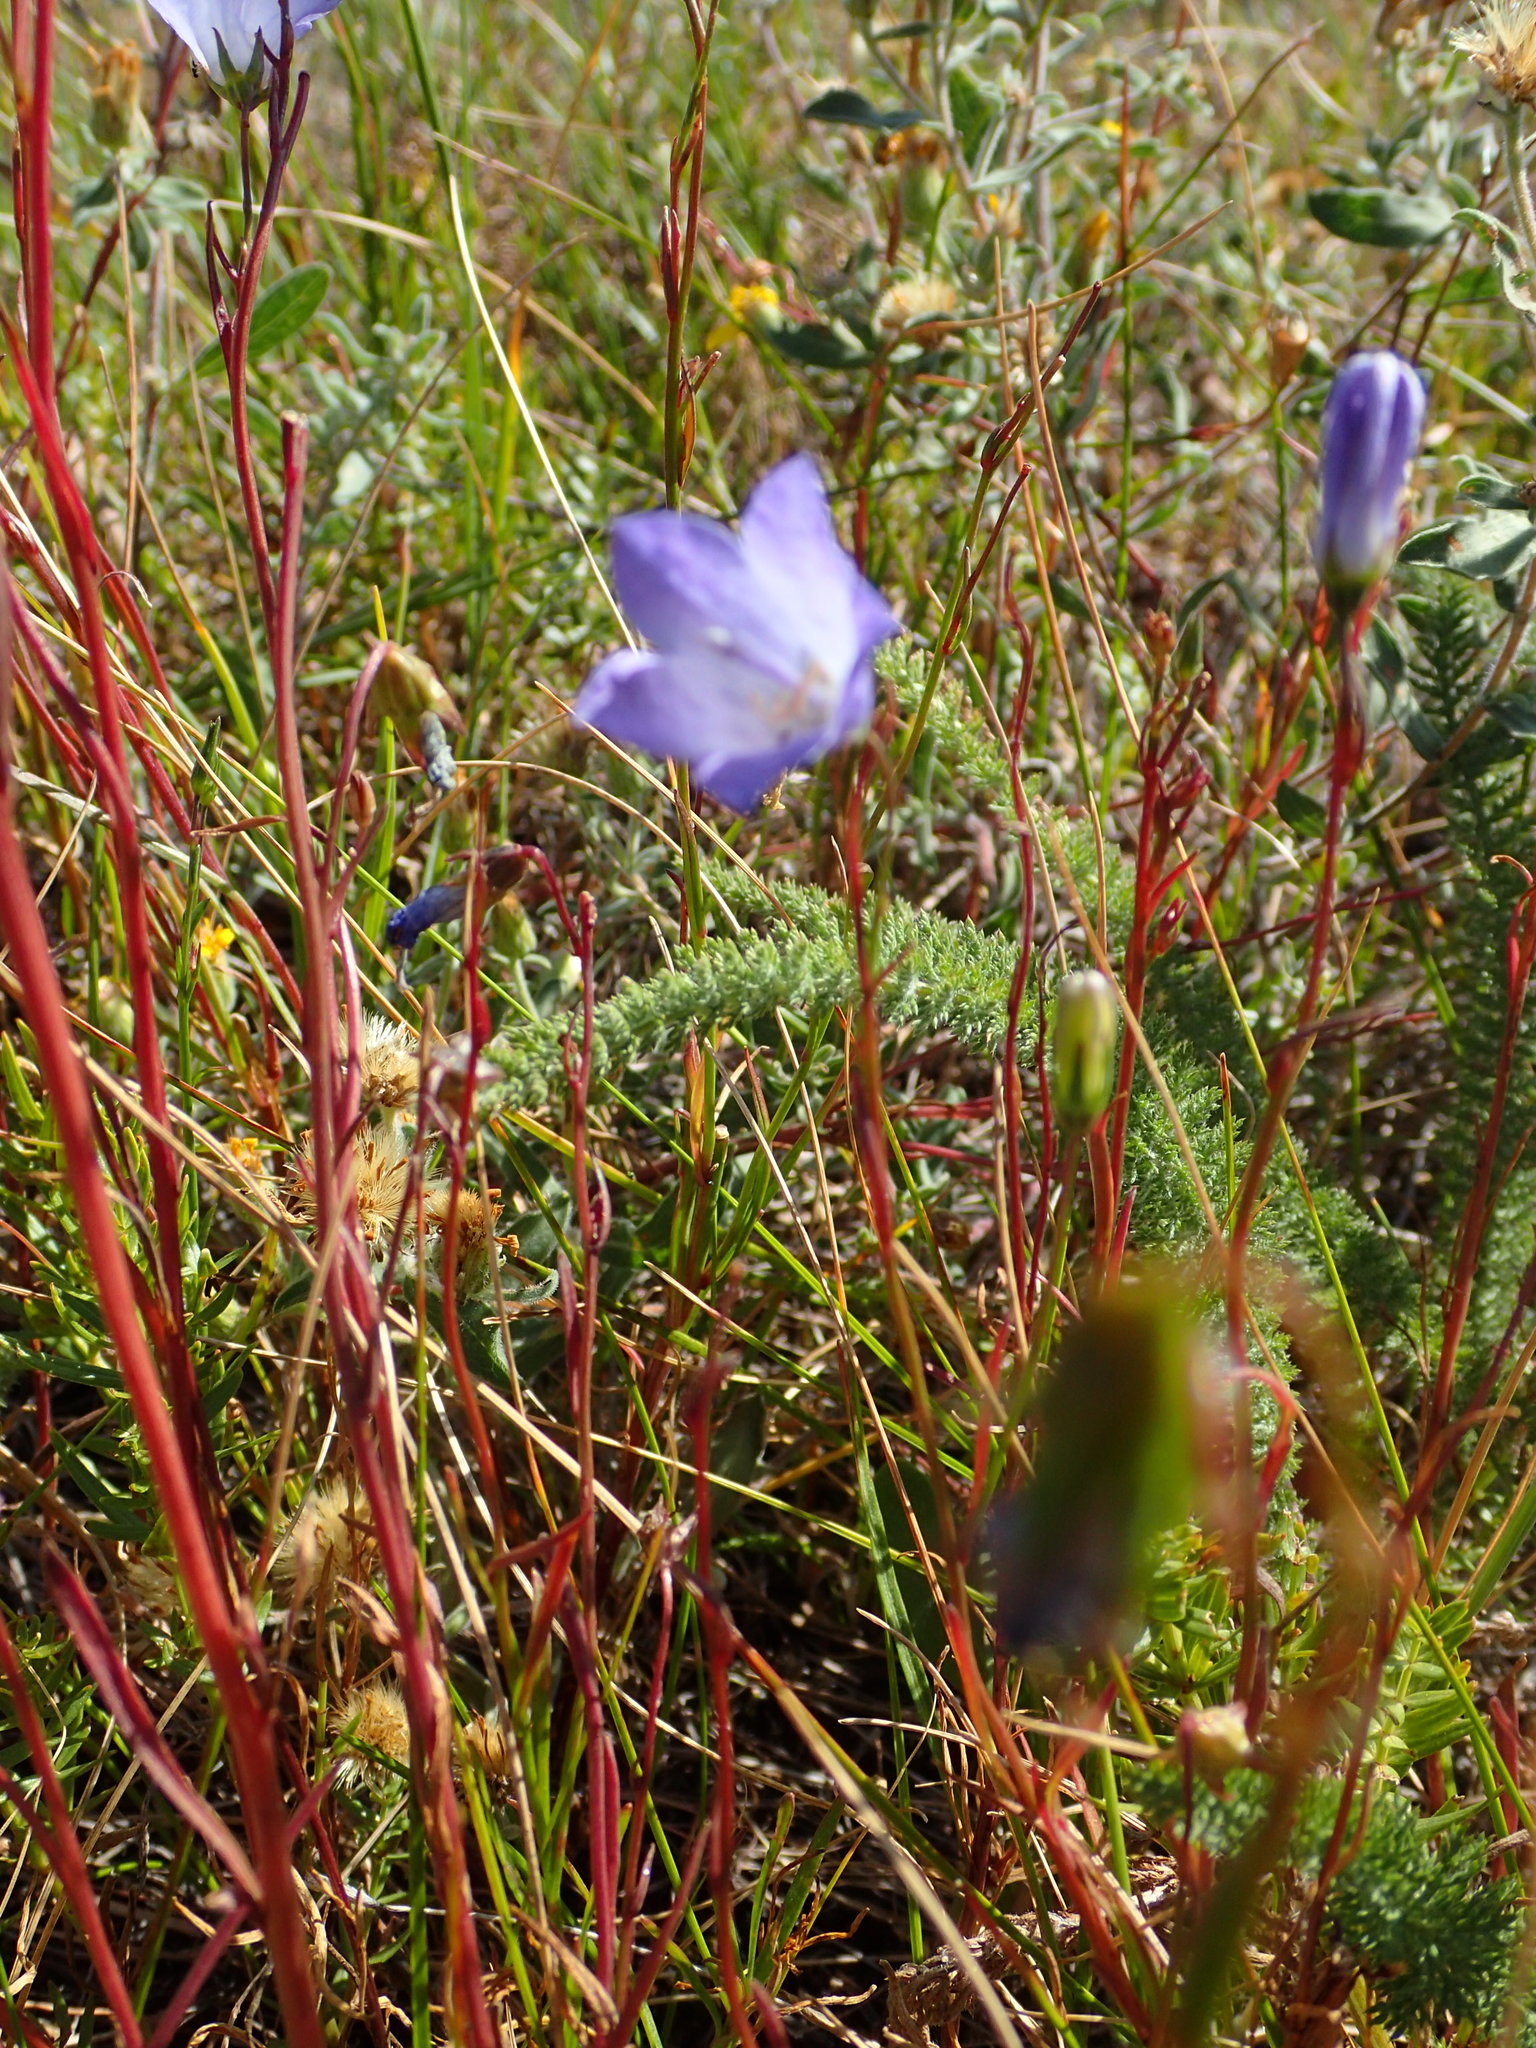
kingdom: Plantae
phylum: Tracheophyta
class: Magnoliopsida
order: Asterales
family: Campanulaceae
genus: Campanula
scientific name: Campanula alaskana
